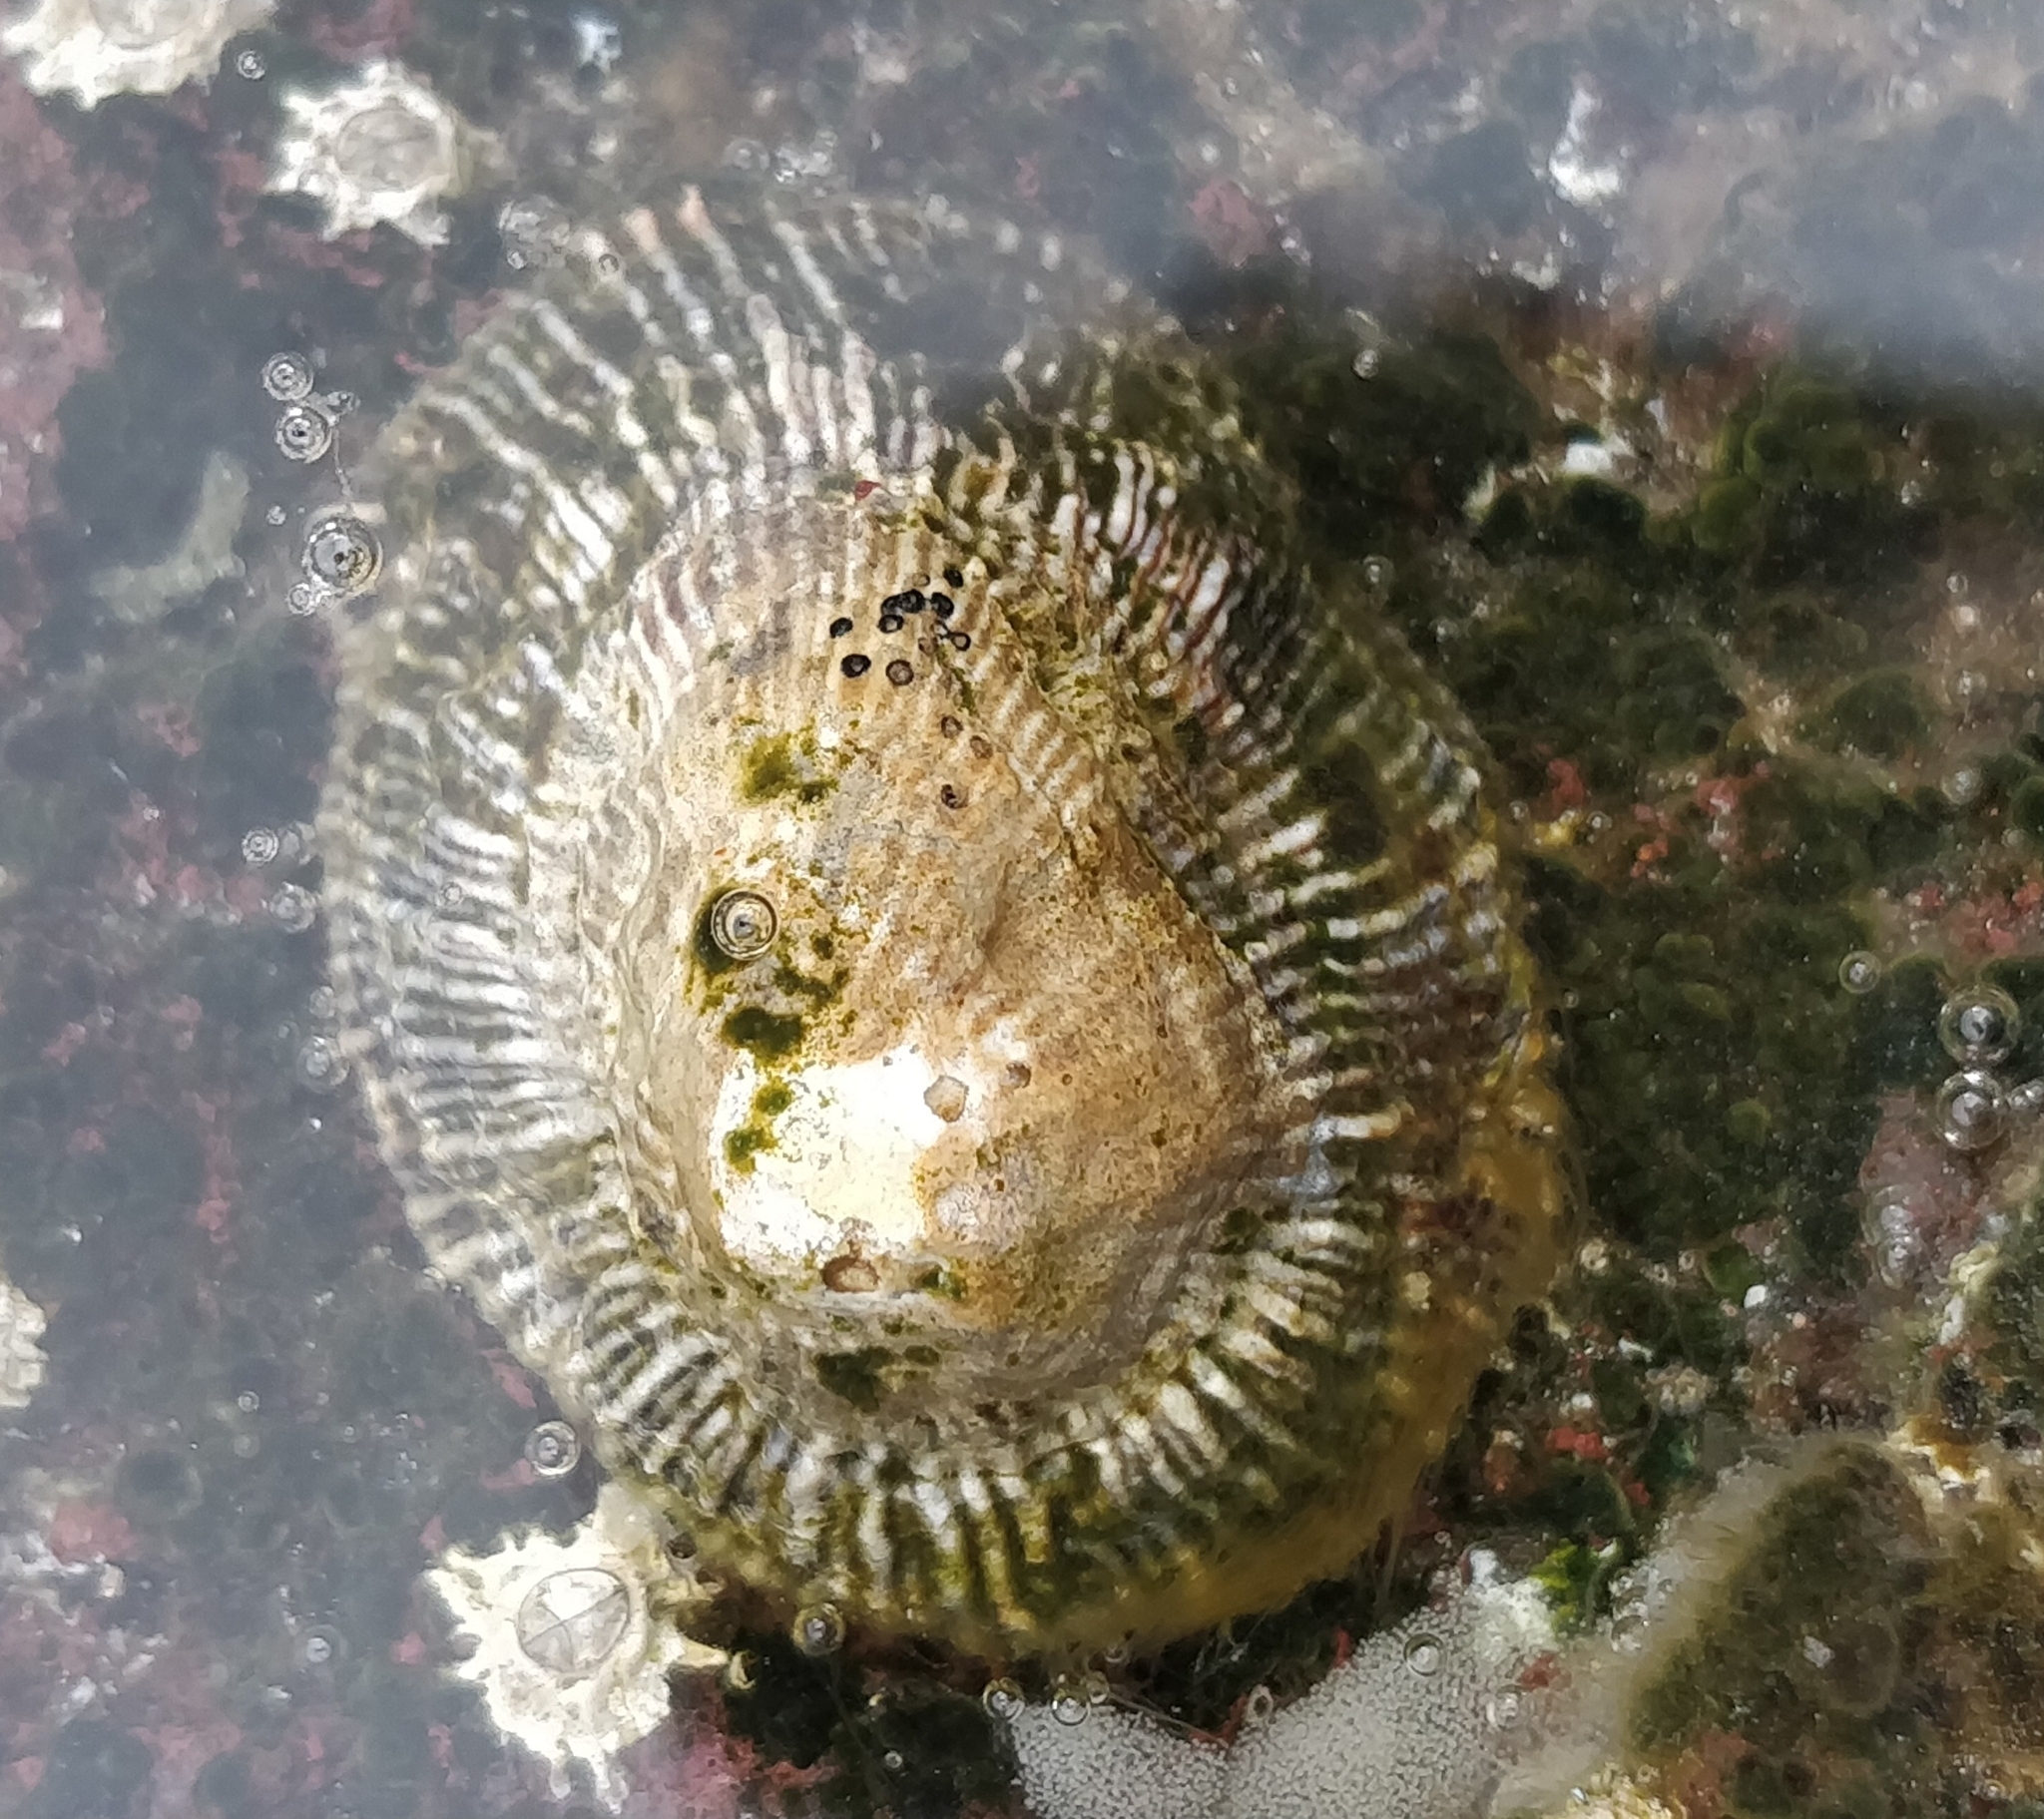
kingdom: Animalia
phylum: Mollusca
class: Gastropoda
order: Siphonariida
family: Siphonariidae
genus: Siphonaria
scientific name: Siphonaria pectinata
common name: Striped false limpet
